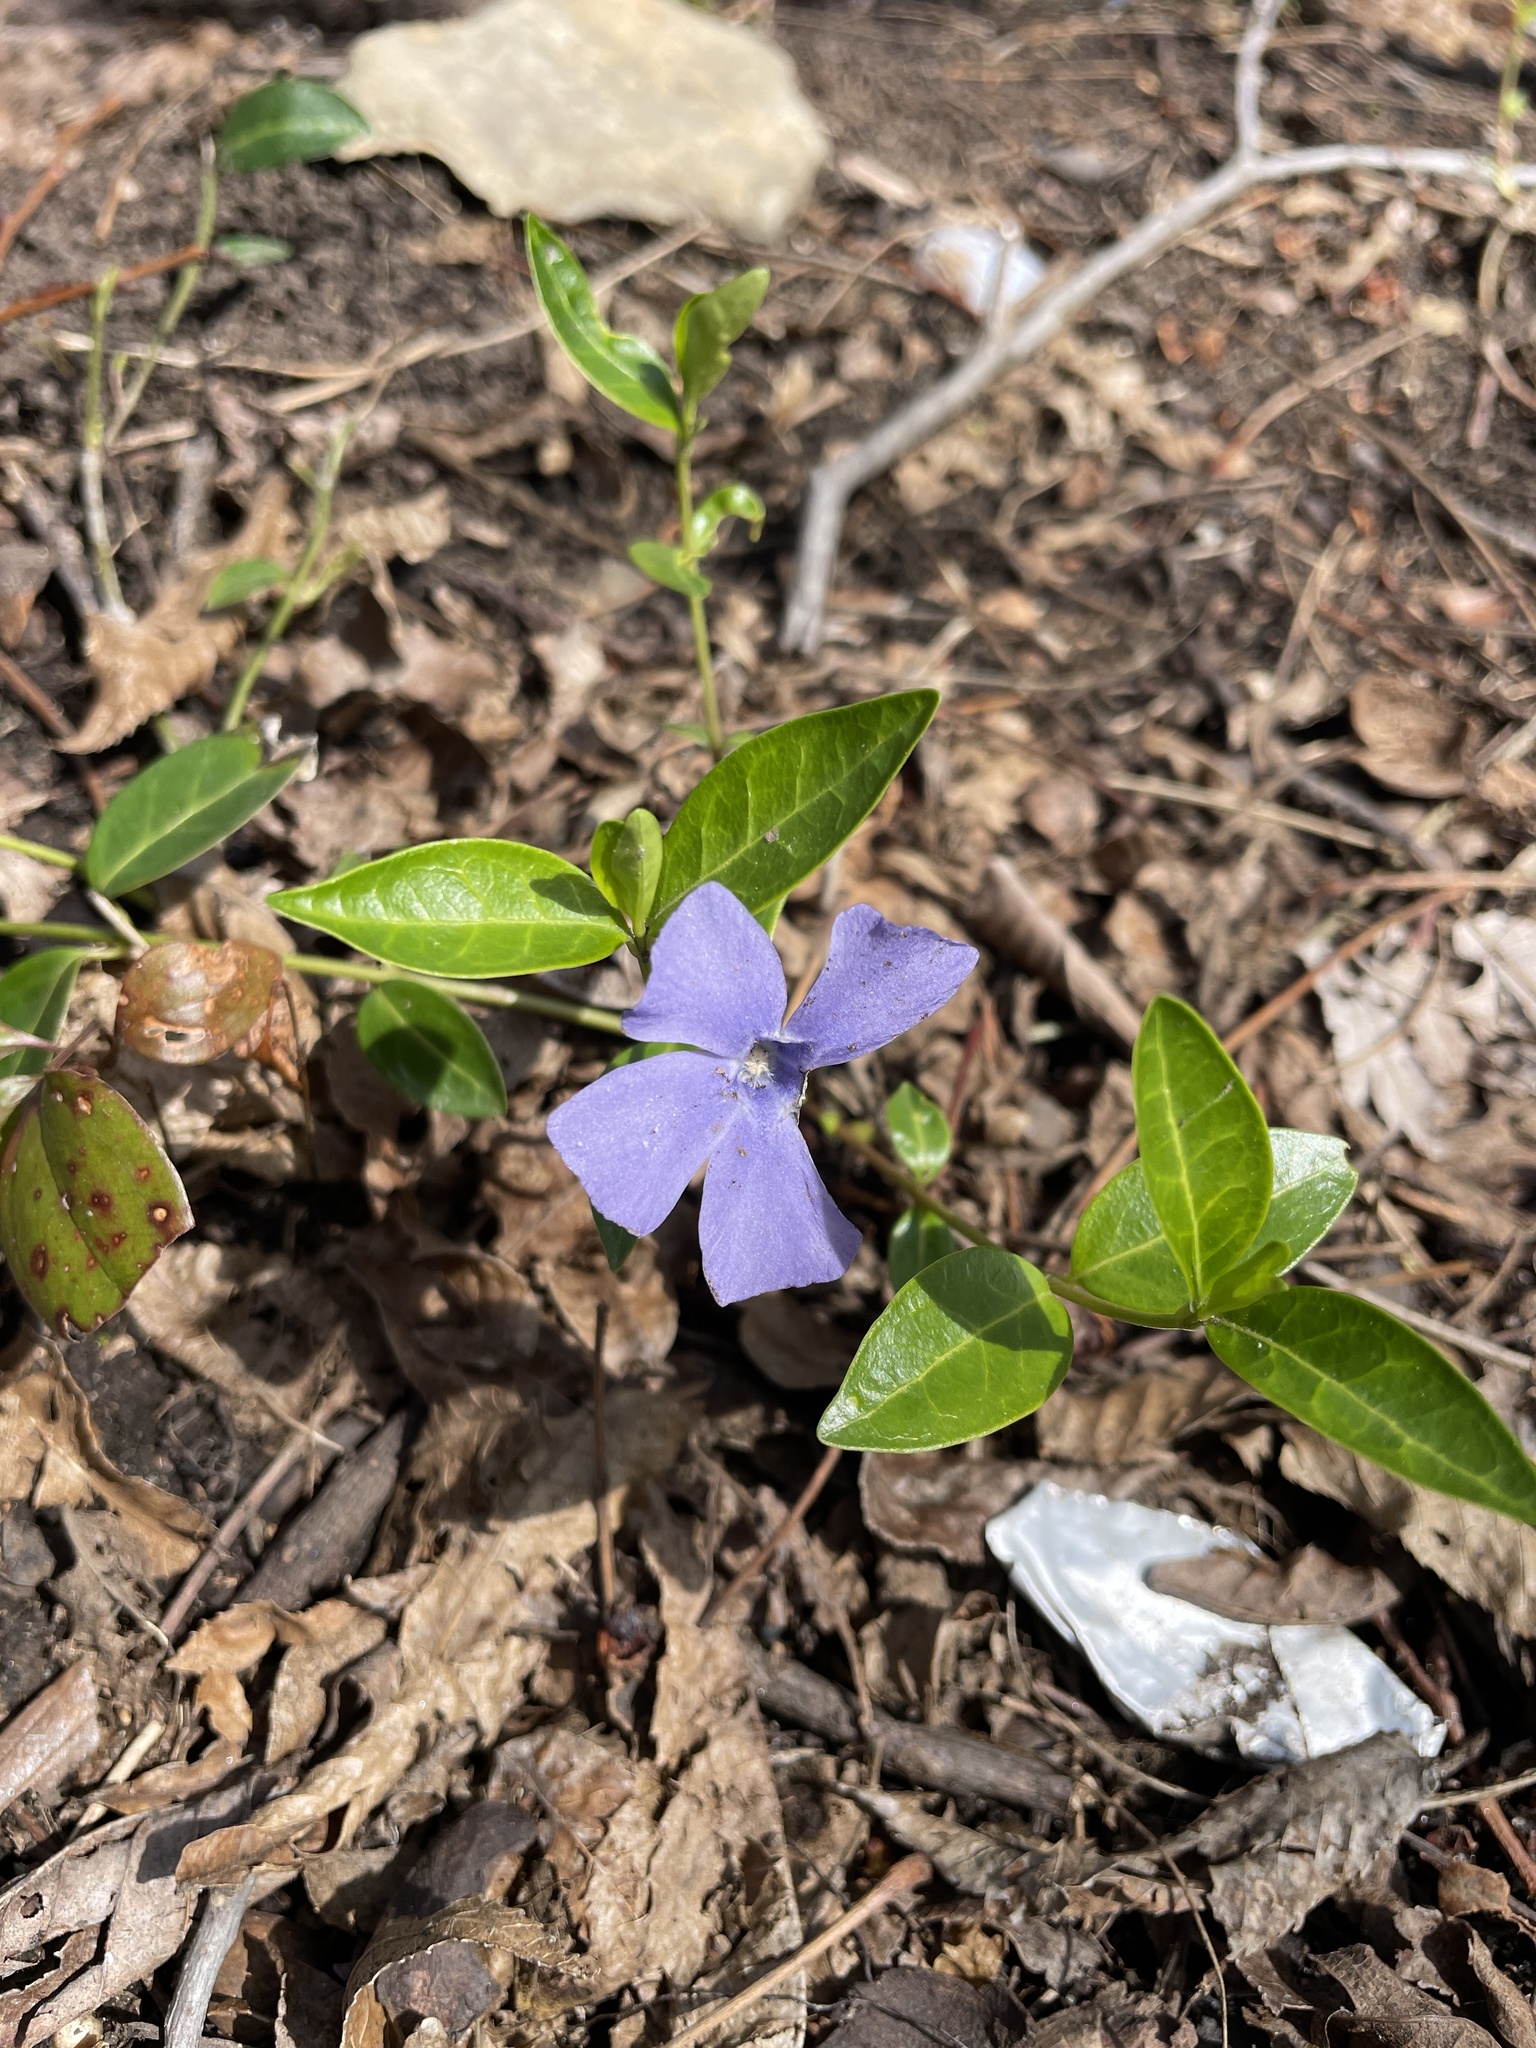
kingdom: Plantae
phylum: Tracheophyta
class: Magnoliopsida
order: Gentianales
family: Apocynaceae
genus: Vinca
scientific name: Vinca minor
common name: Lesser periwinkle
